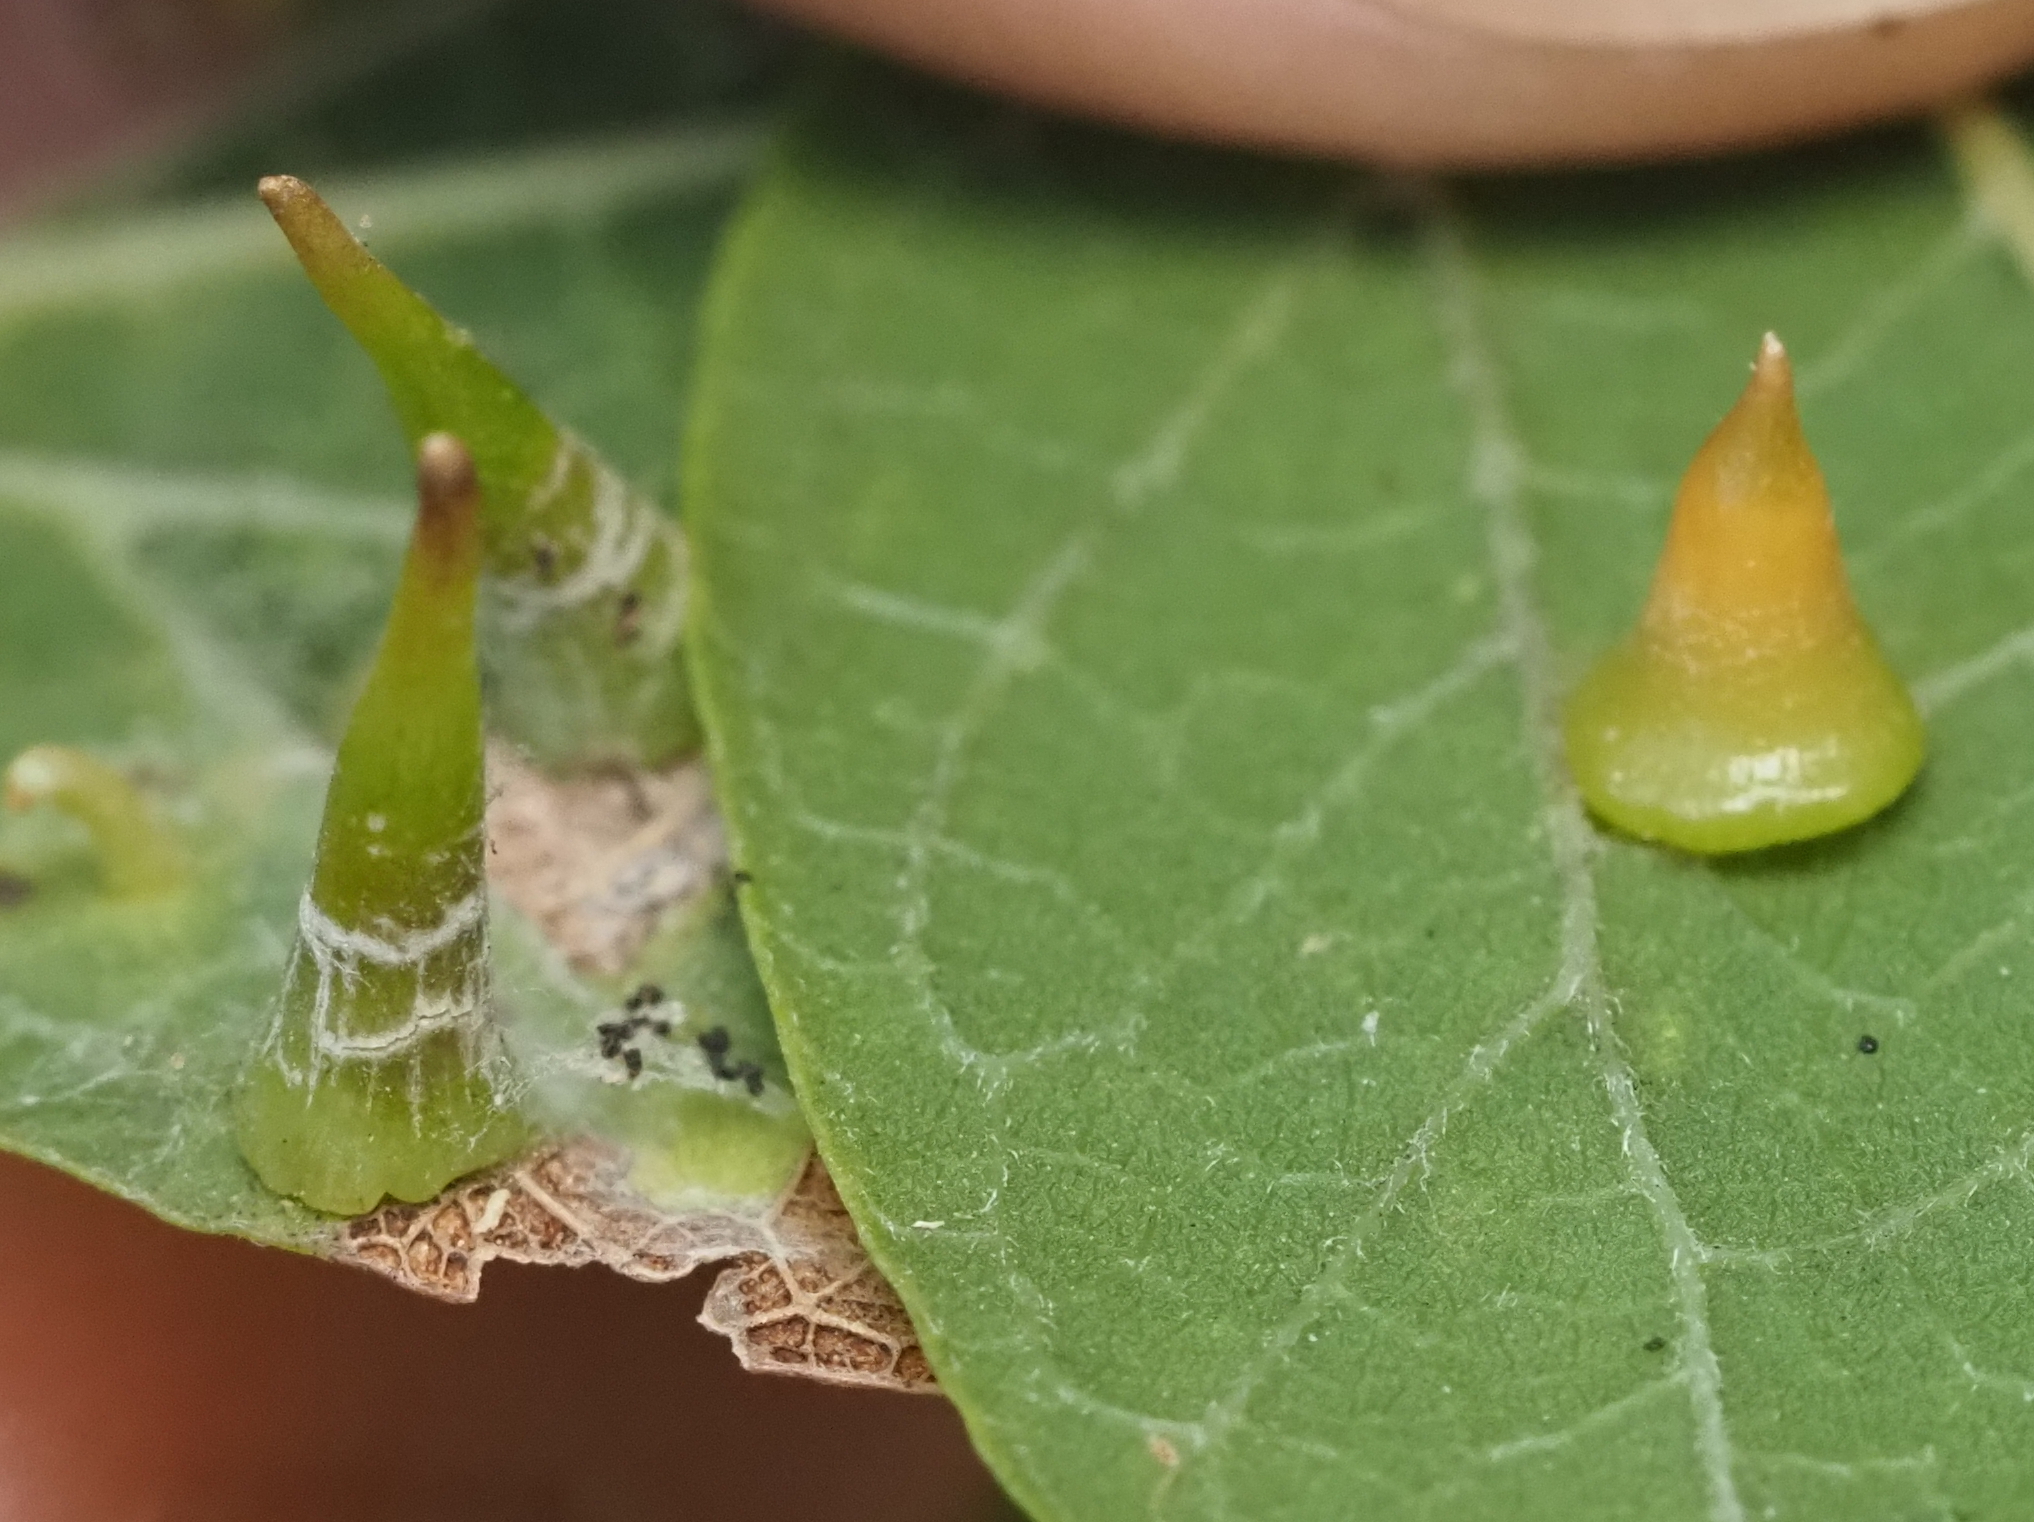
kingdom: Animalia
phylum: Arthropoda
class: Insecta
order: Diptera
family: Cecidomyiidae
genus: Celticecis
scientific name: Celticecis subulata
